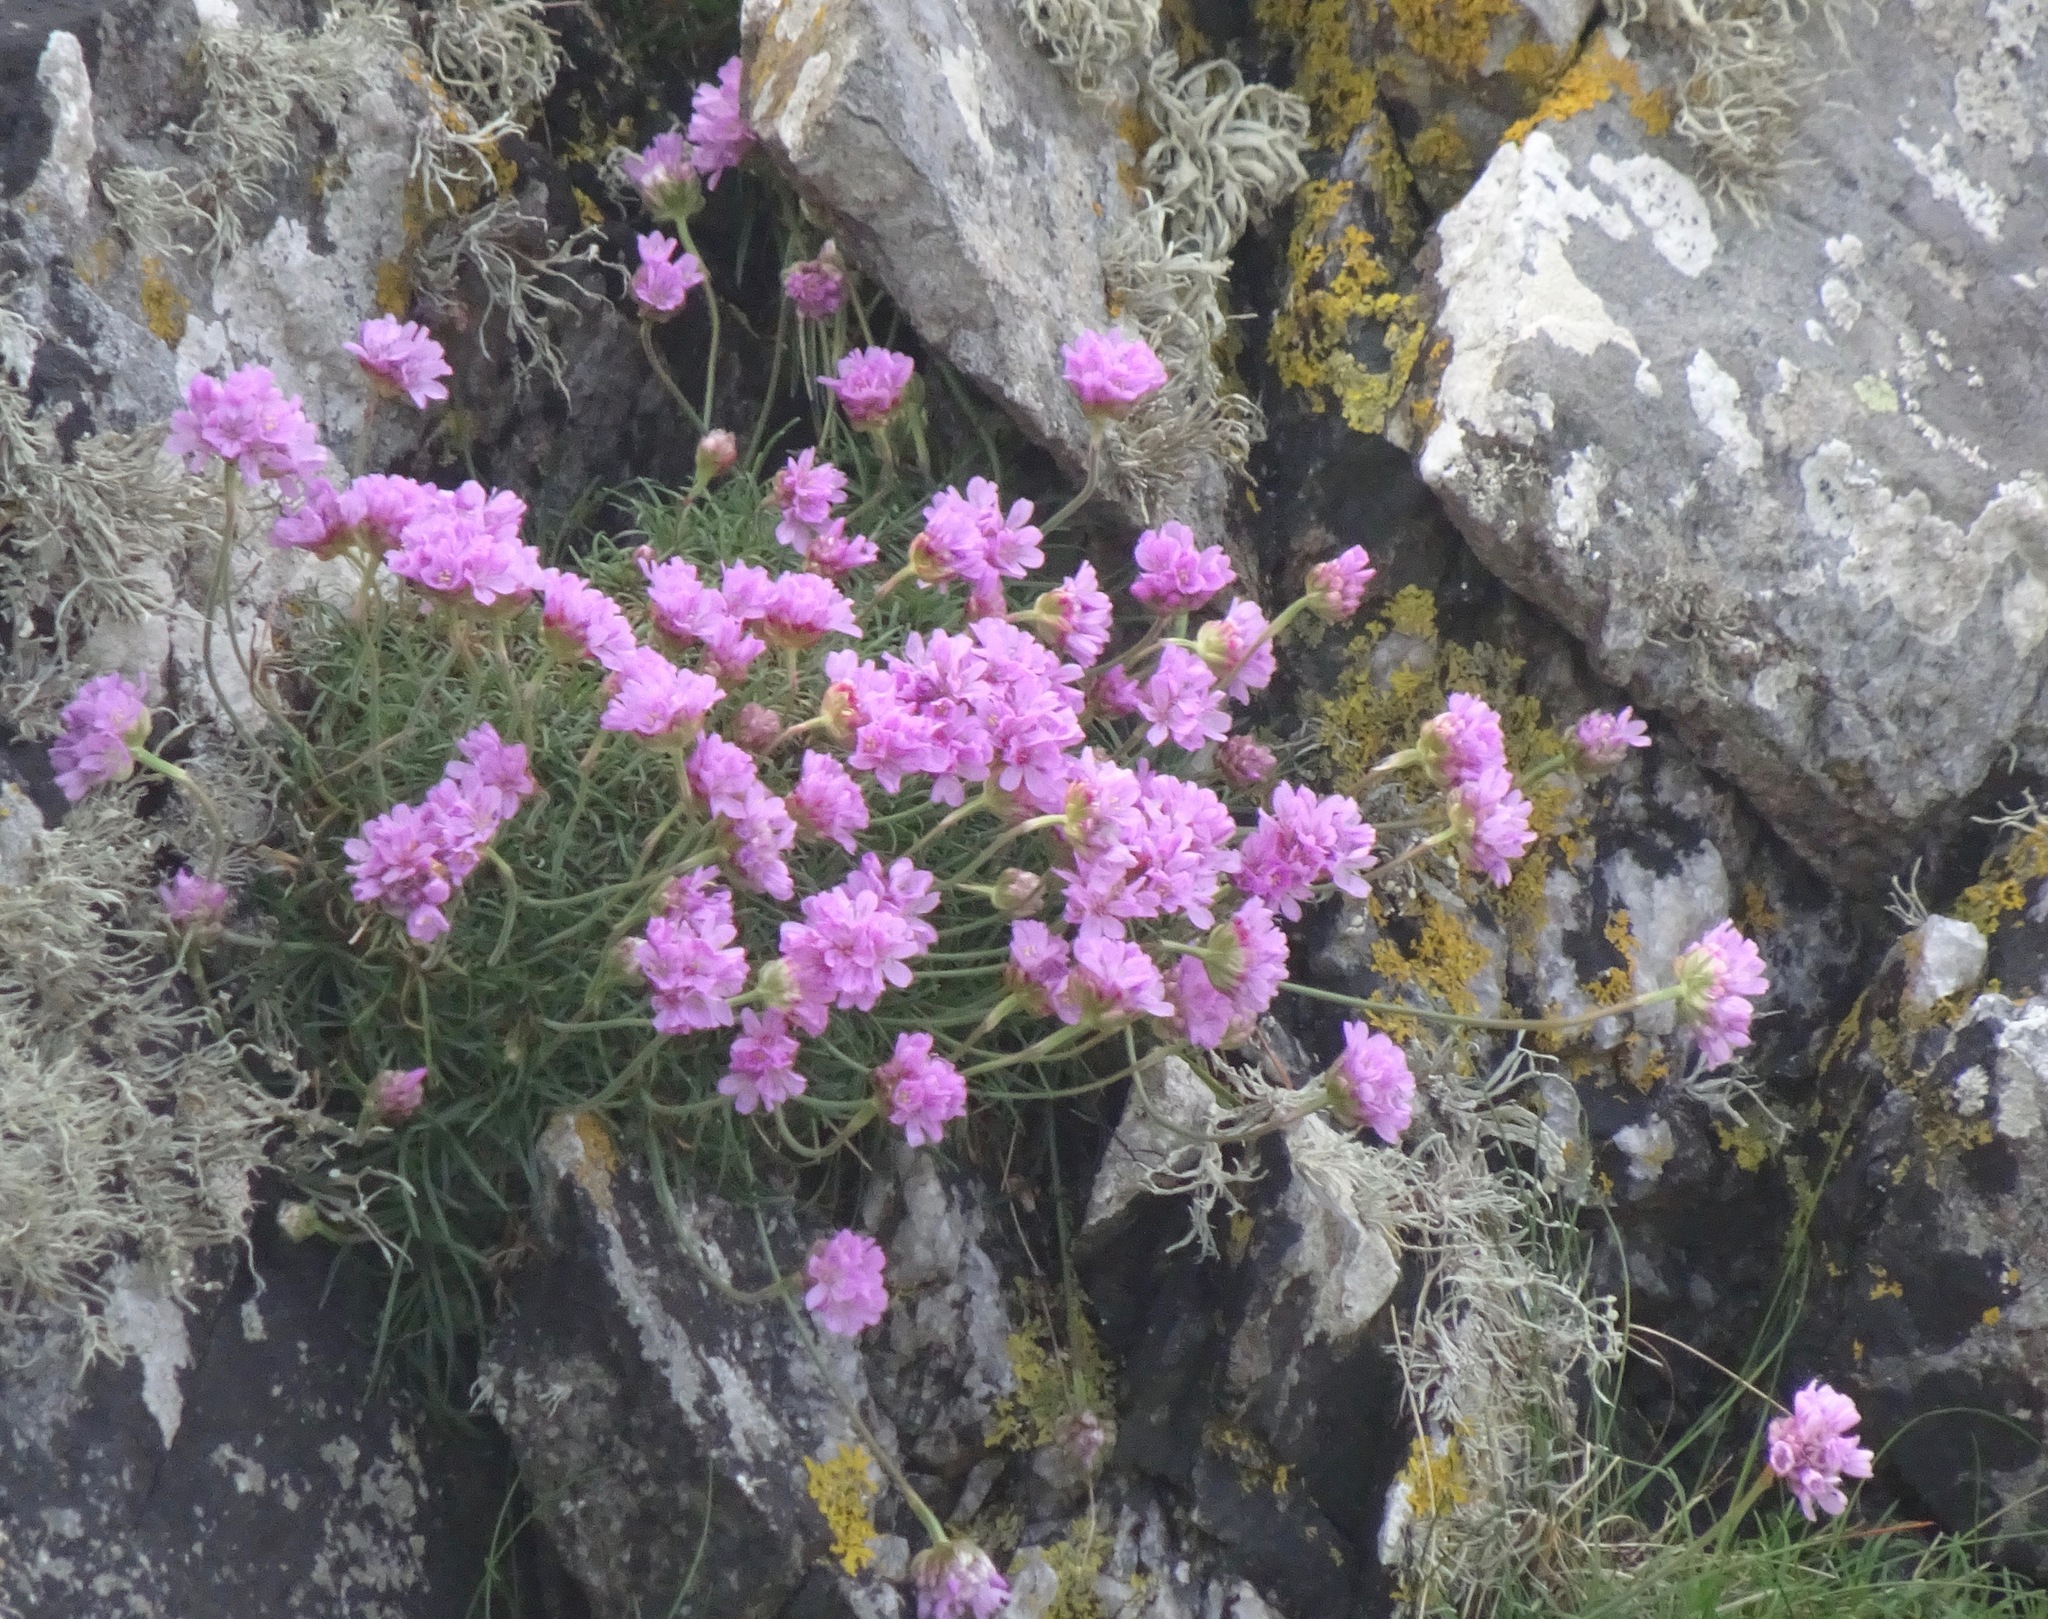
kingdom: Plantae
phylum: Tracheophyta
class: Magnoliopsida
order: Caryophyllales
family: Plumbaginaceae
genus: Armeria
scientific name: Armeria maritima
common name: Thrift
